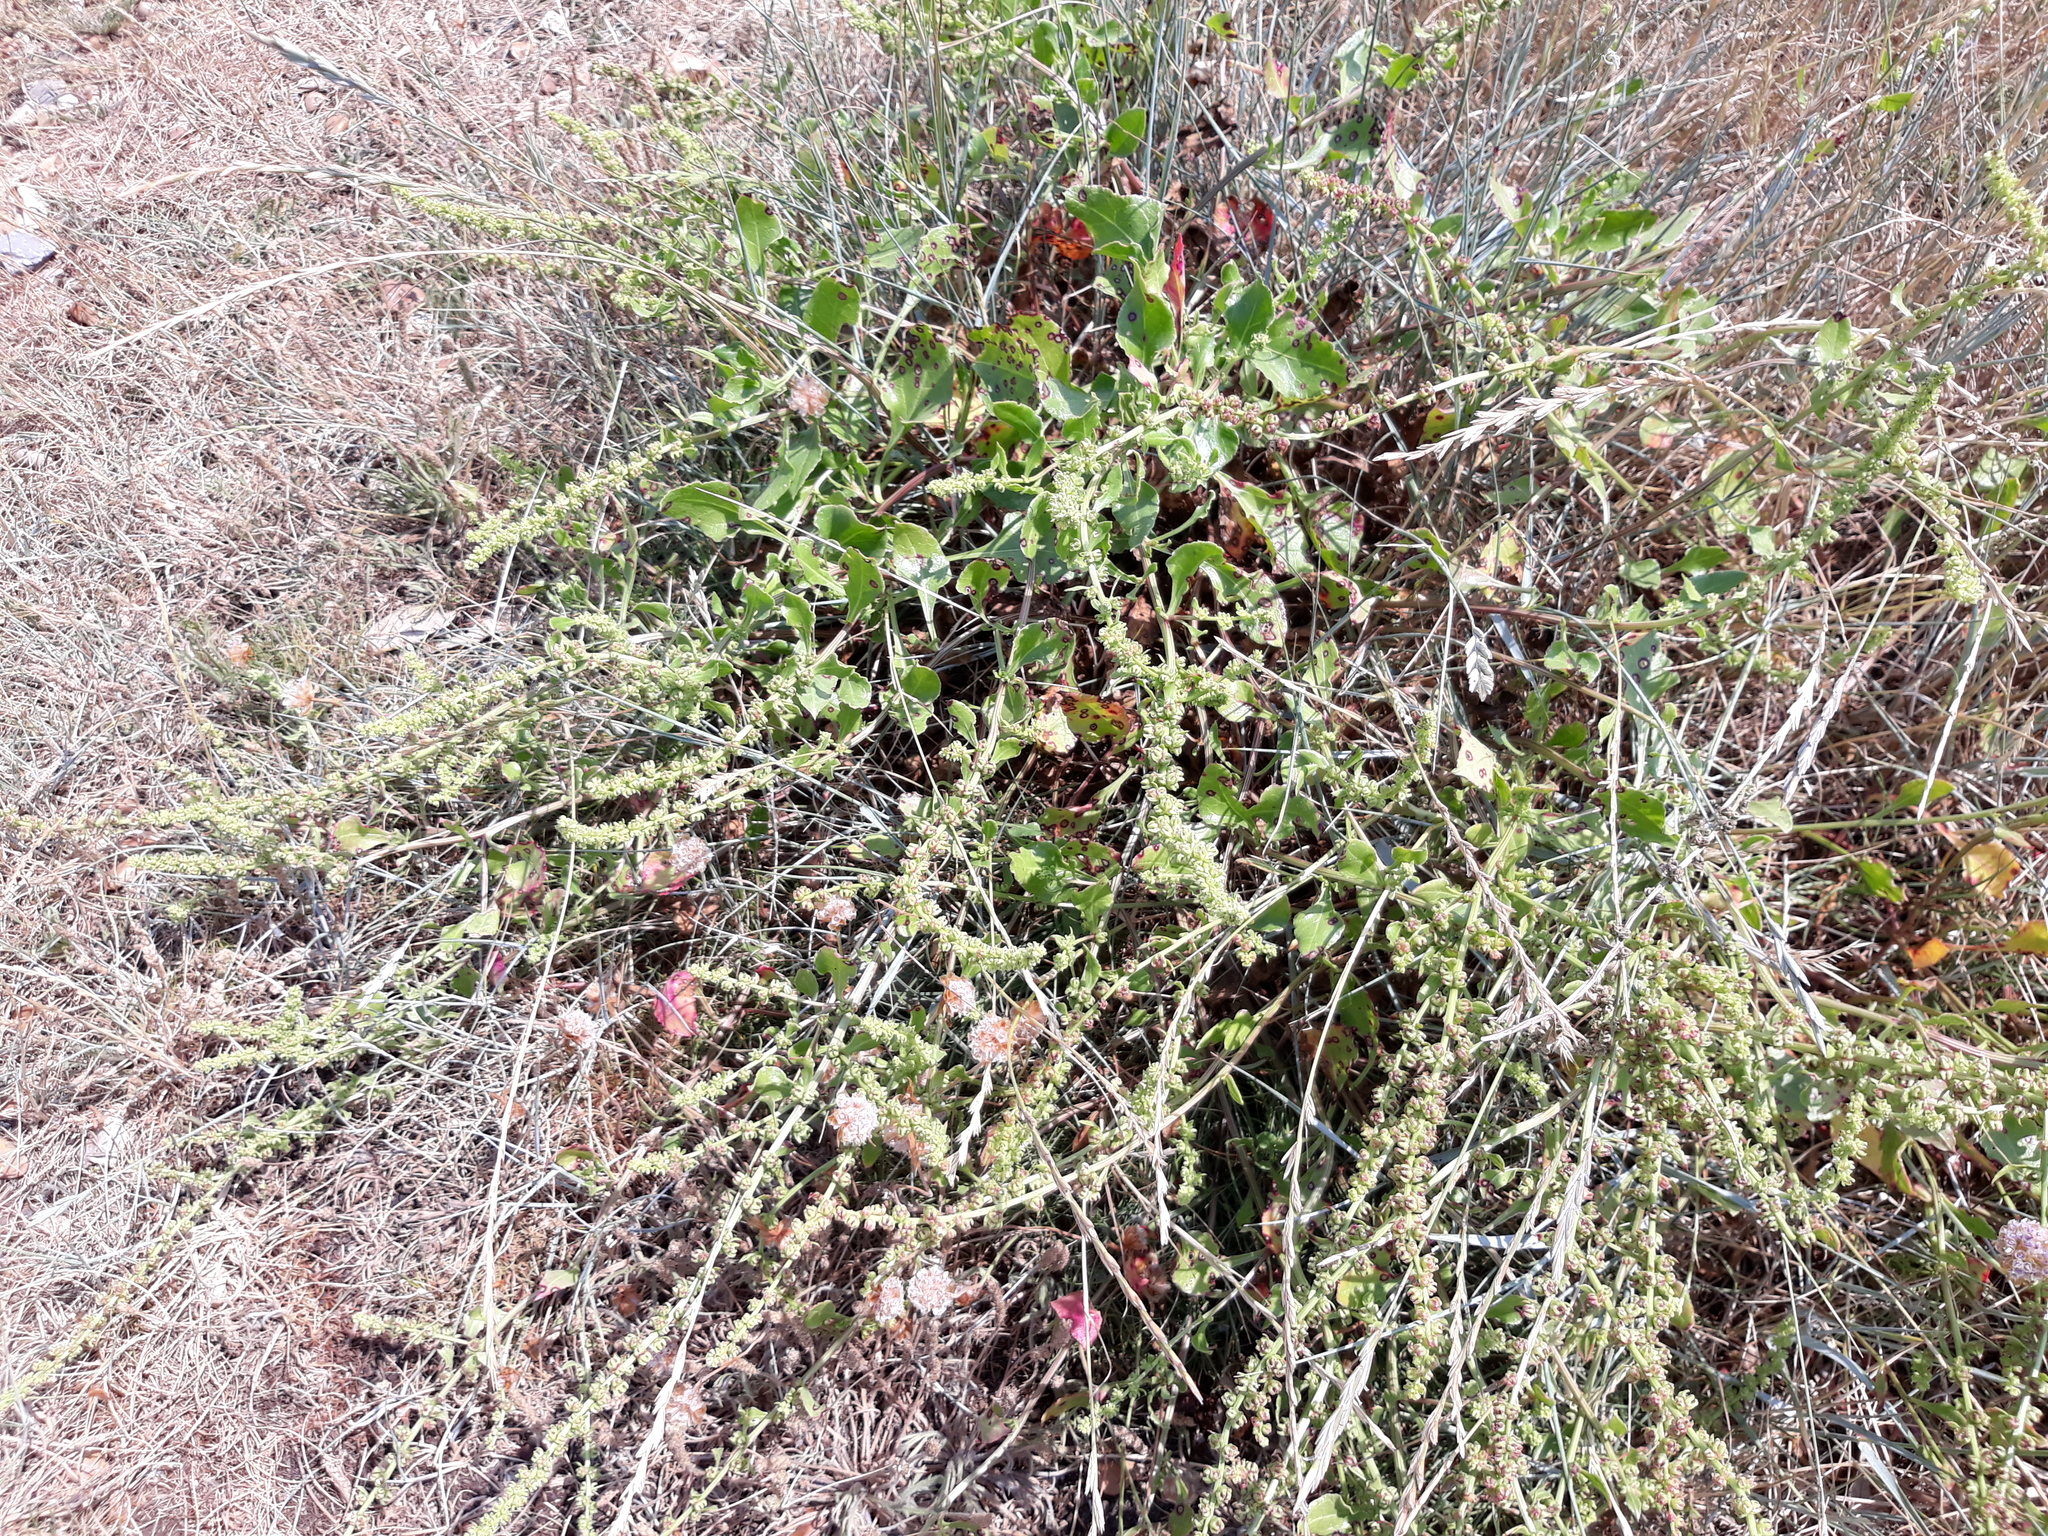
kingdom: Plantae
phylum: Tracheophyta
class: Magnoliopsida
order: Caryophyllales
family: Amaranthaceae
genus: Beta
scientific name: Beta vulgaris
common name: Beet
